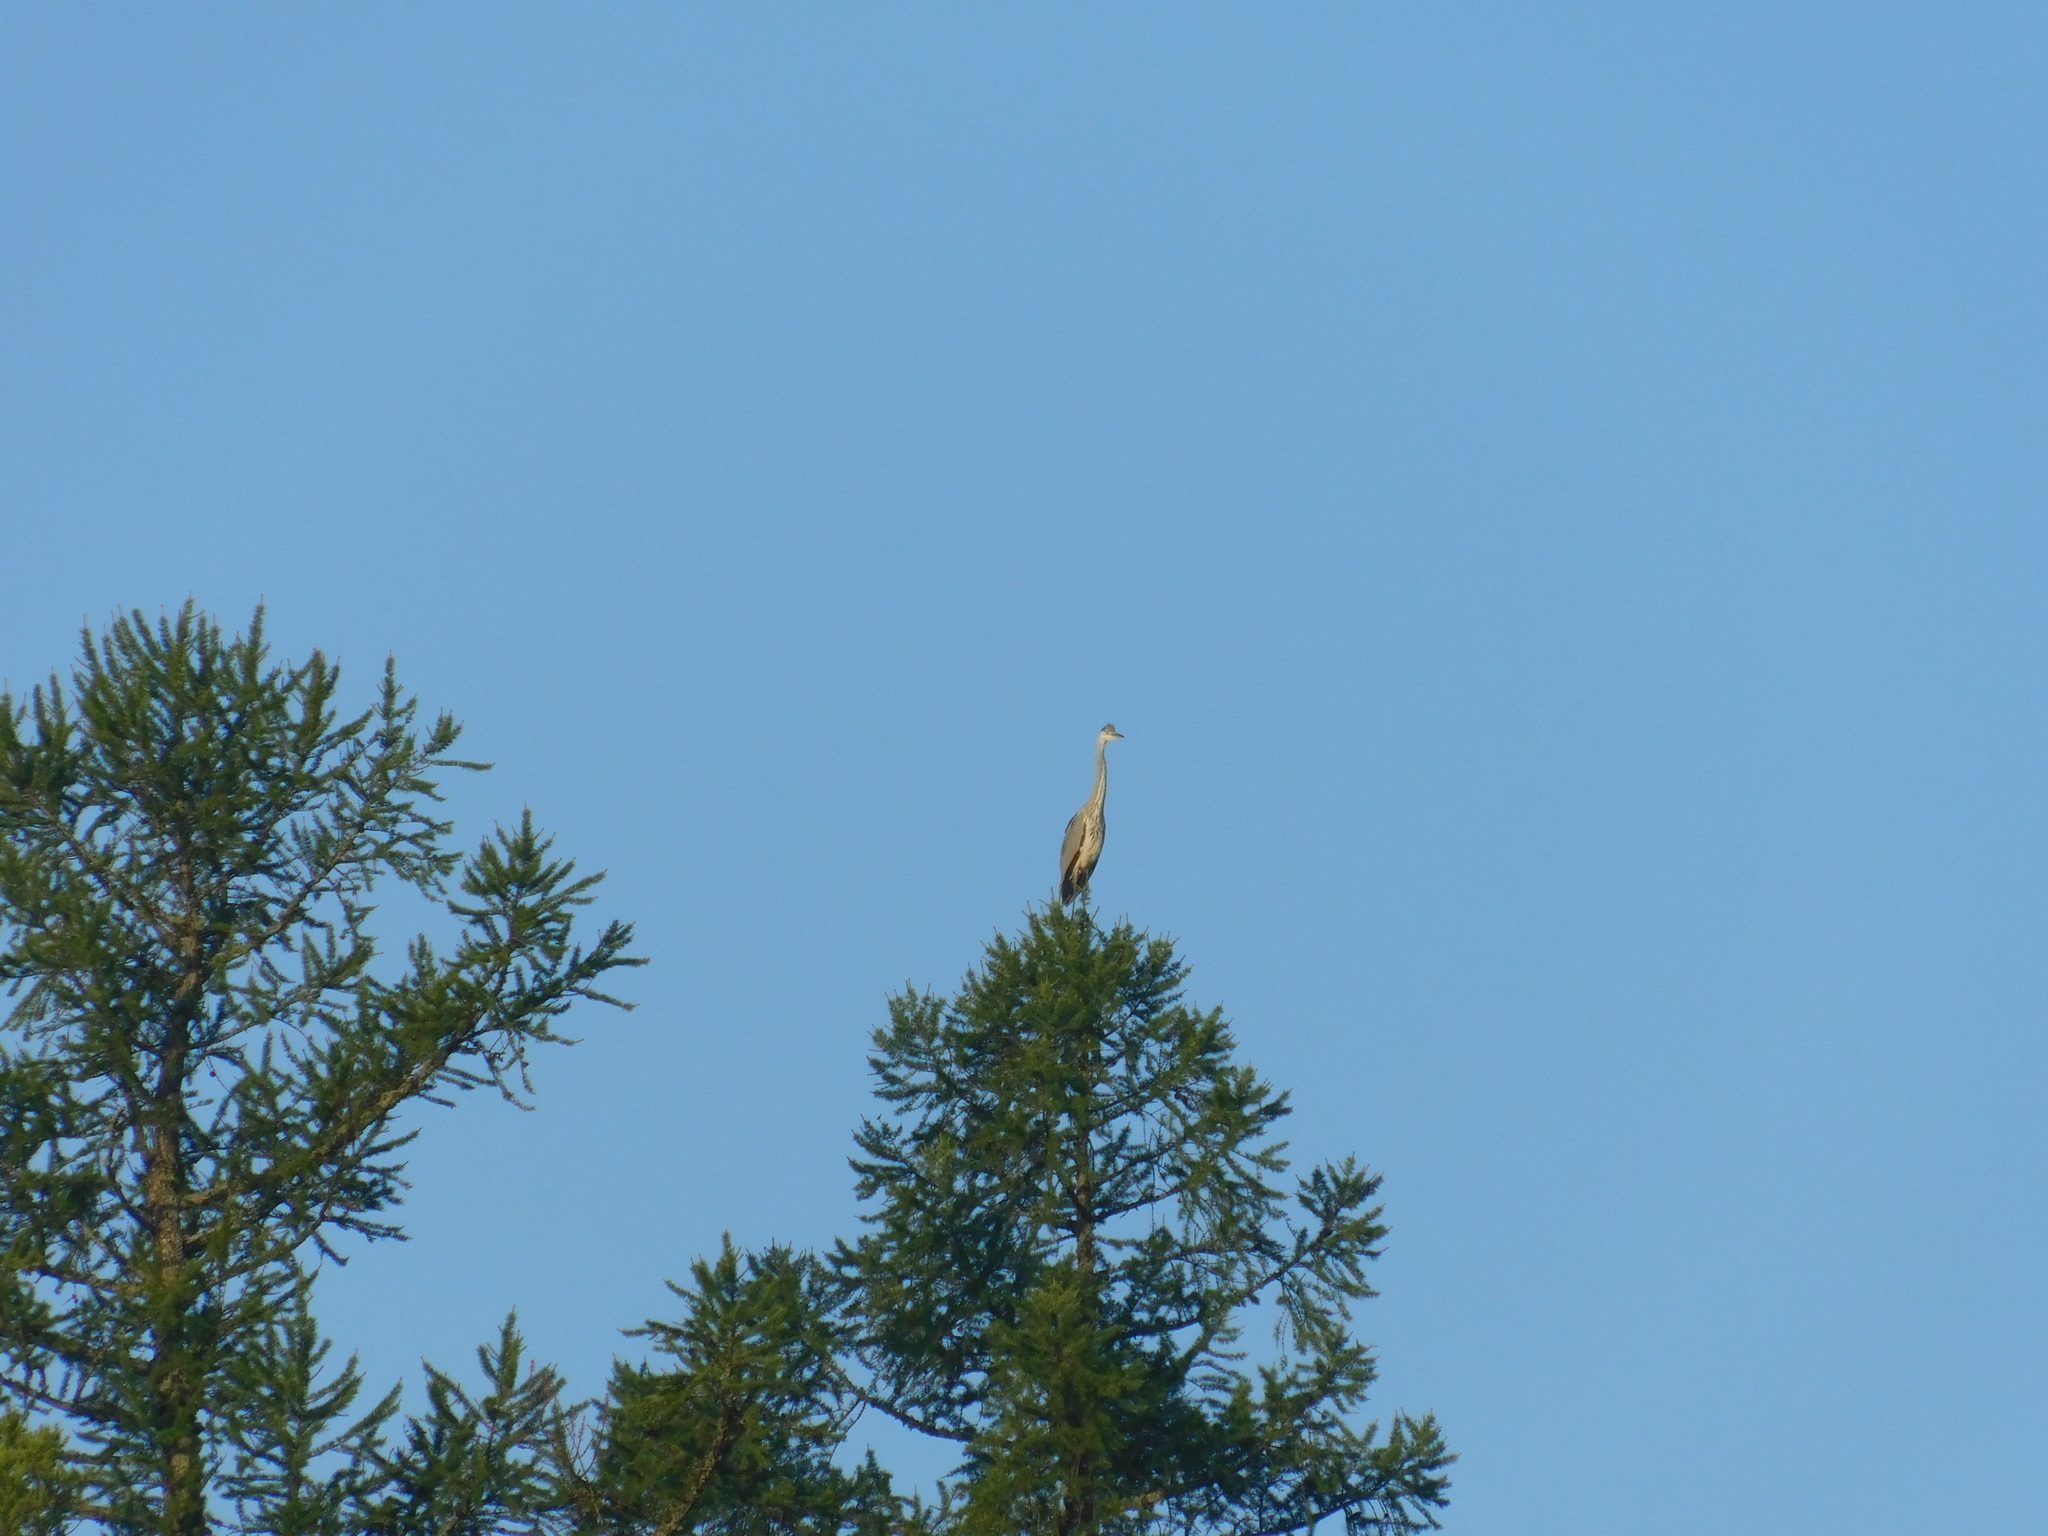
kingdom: Animalia
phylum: Chordata
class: Aves
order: Pelecaniformes
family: Ardeidae
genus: Ardea
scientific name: Ardea cinerea
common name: Grey heron
